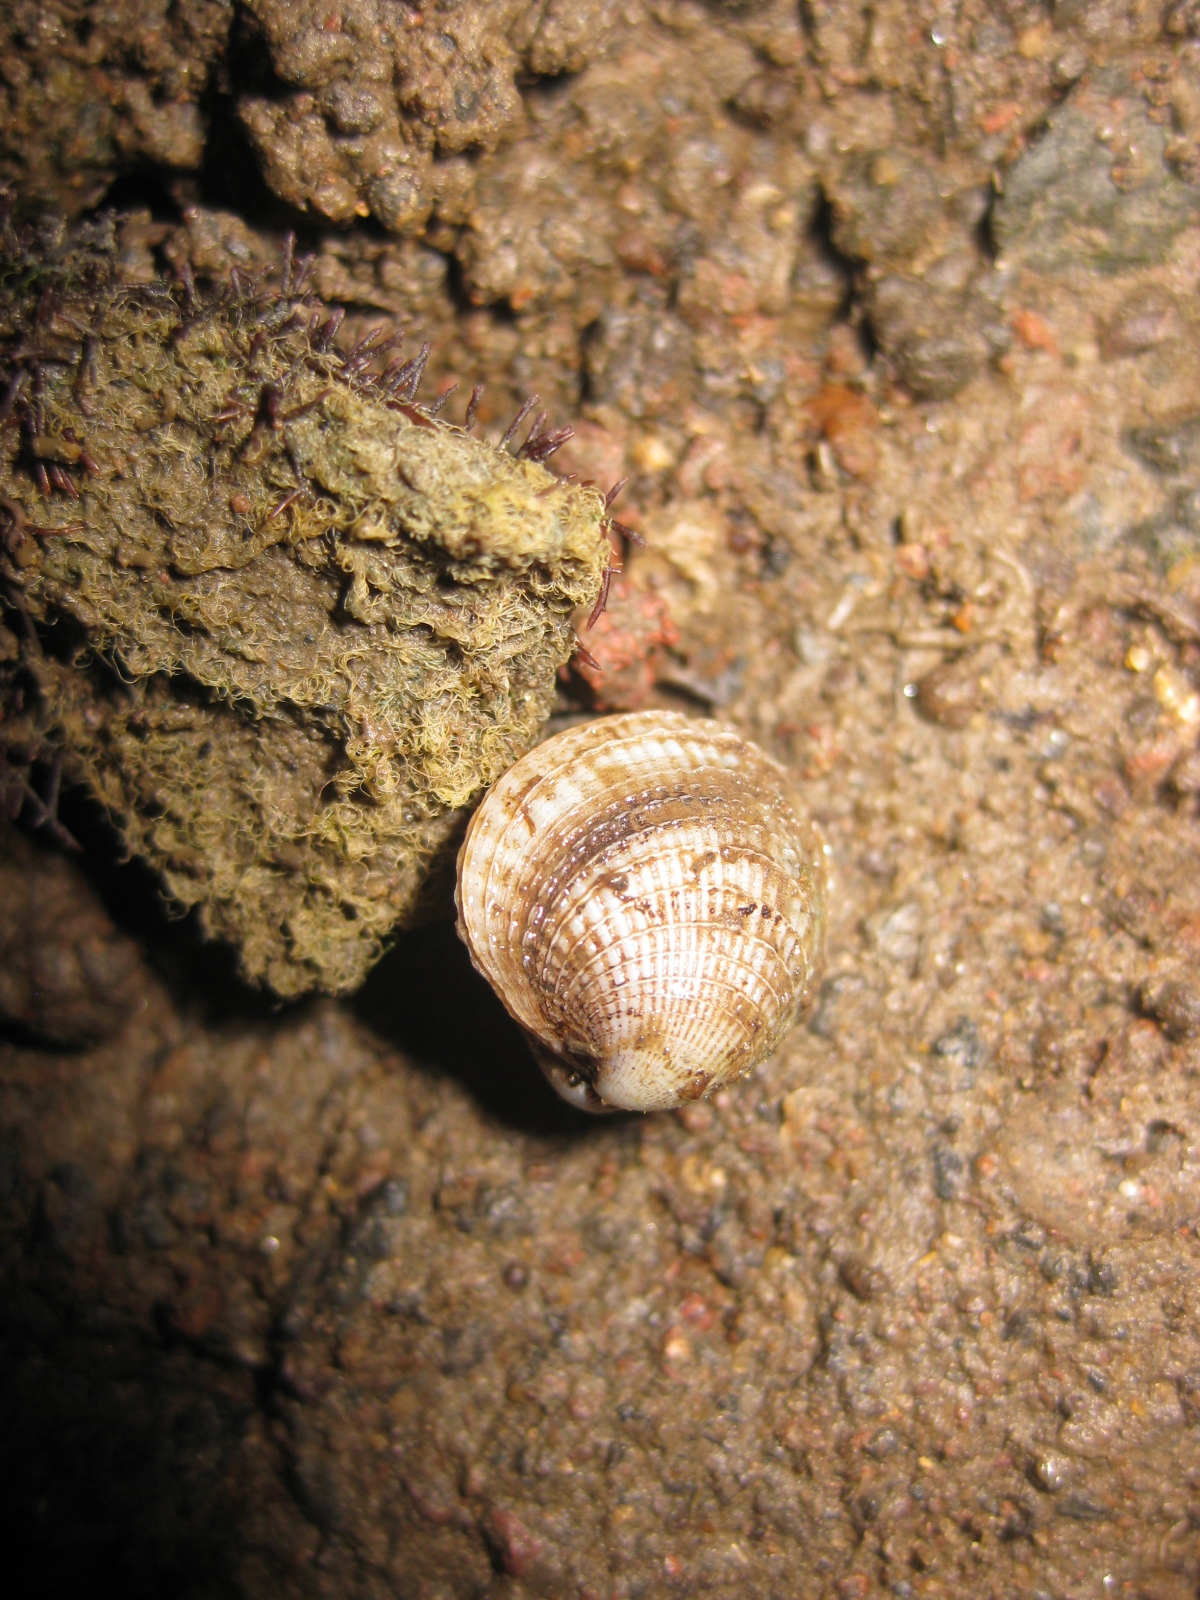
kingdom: Animalia
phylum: Mollusca
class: Bivalvia
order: Venerida
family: Veneridae
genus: Austrovenus
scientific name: Austrovenus stutchburyi
